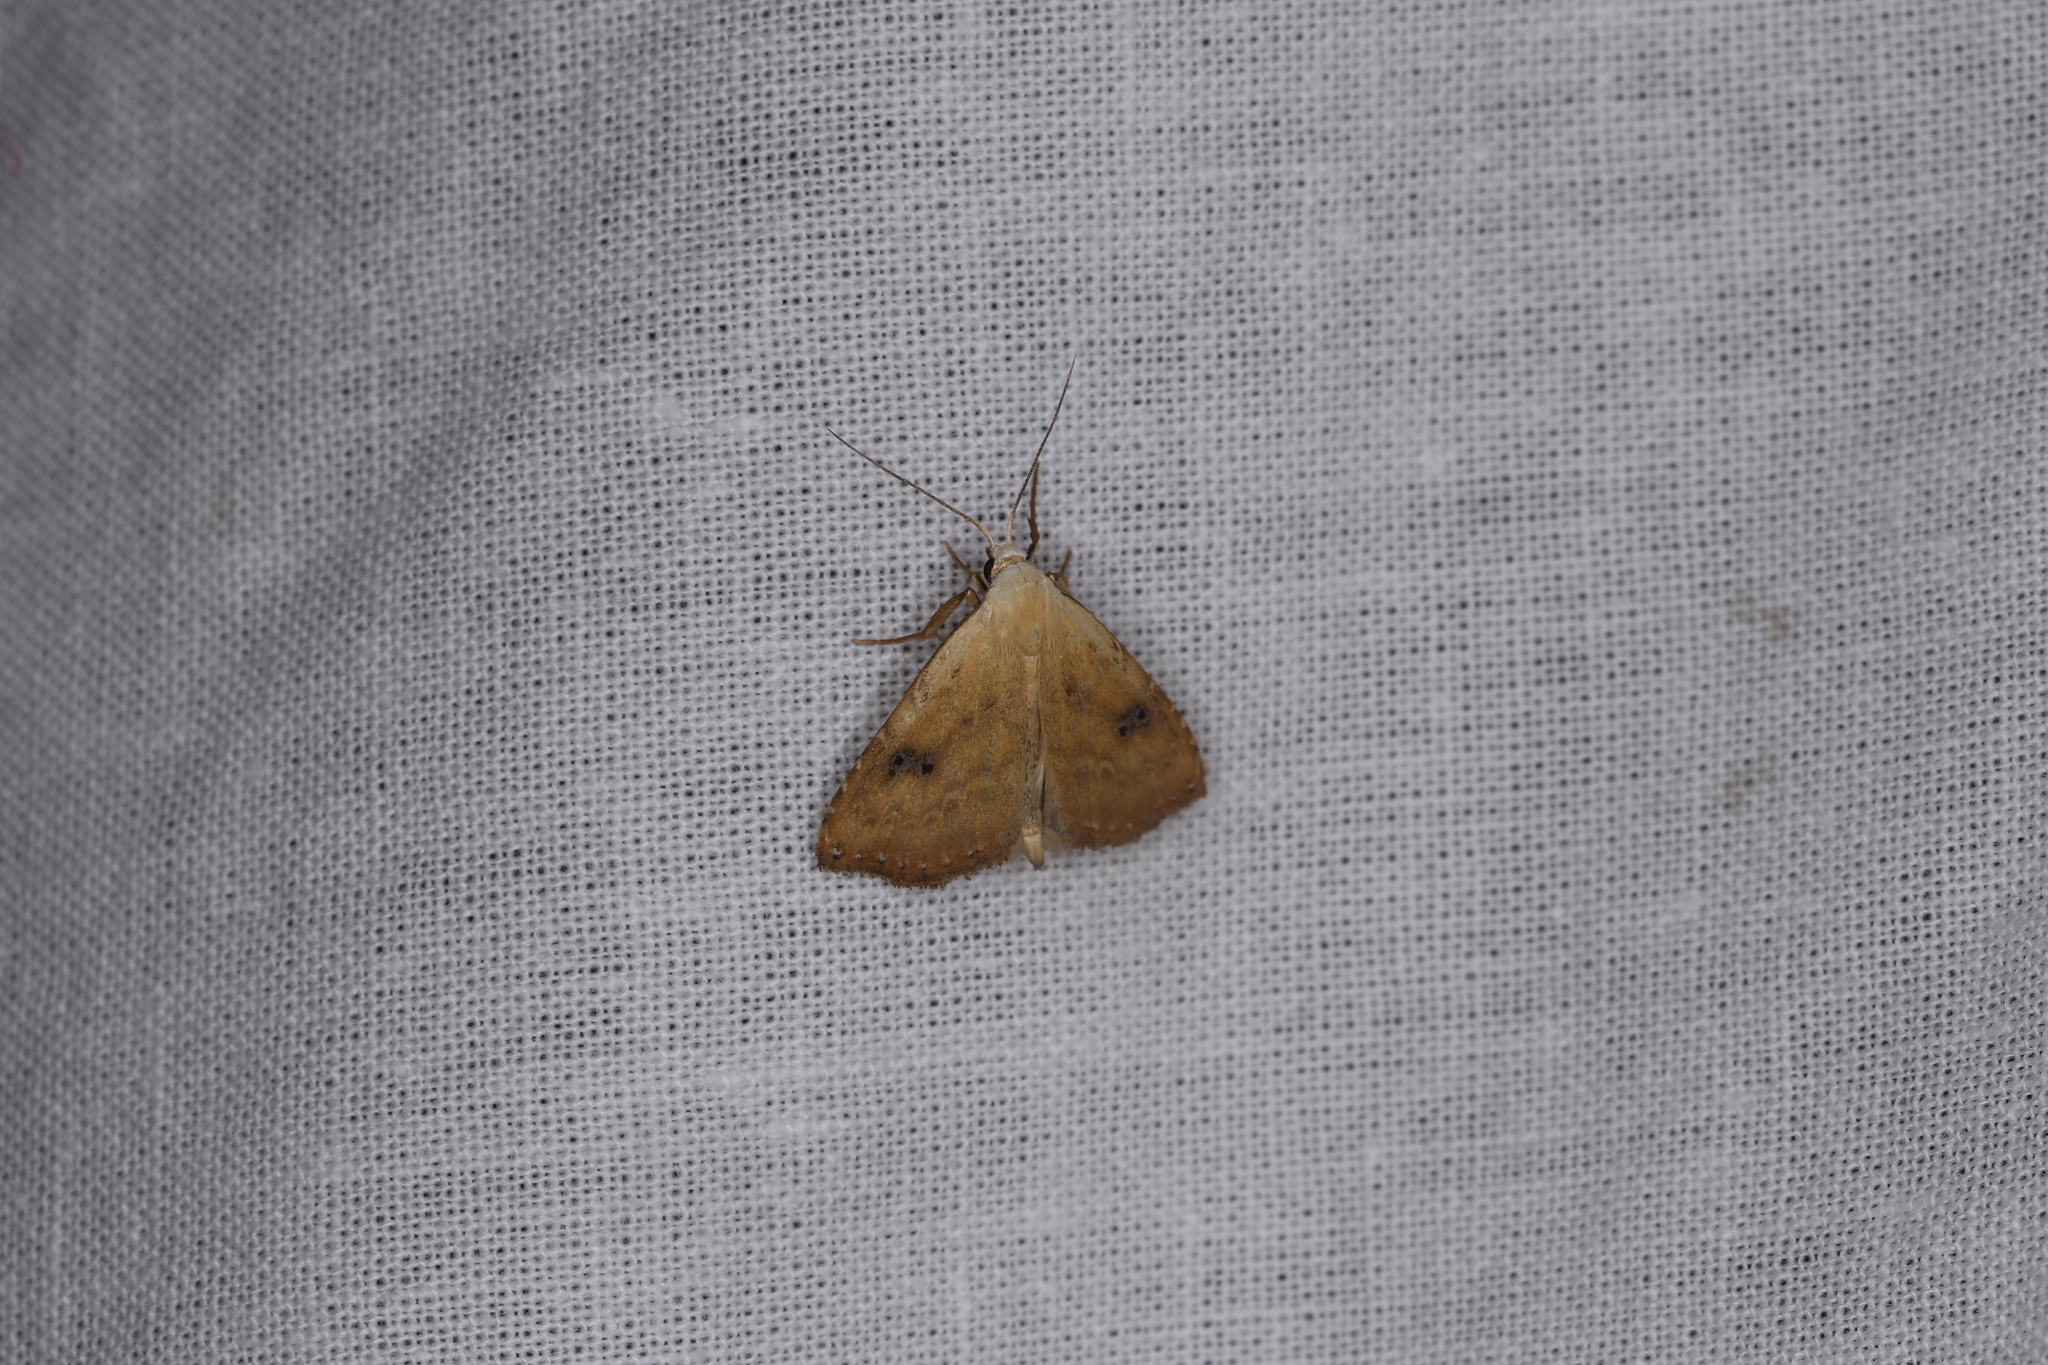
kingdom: Animalia
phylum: Arthropoda
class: Insecta
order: Lepidoptera
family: Erebidae
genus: Rivula
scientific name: Rivula sericealis
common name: Straw dot
